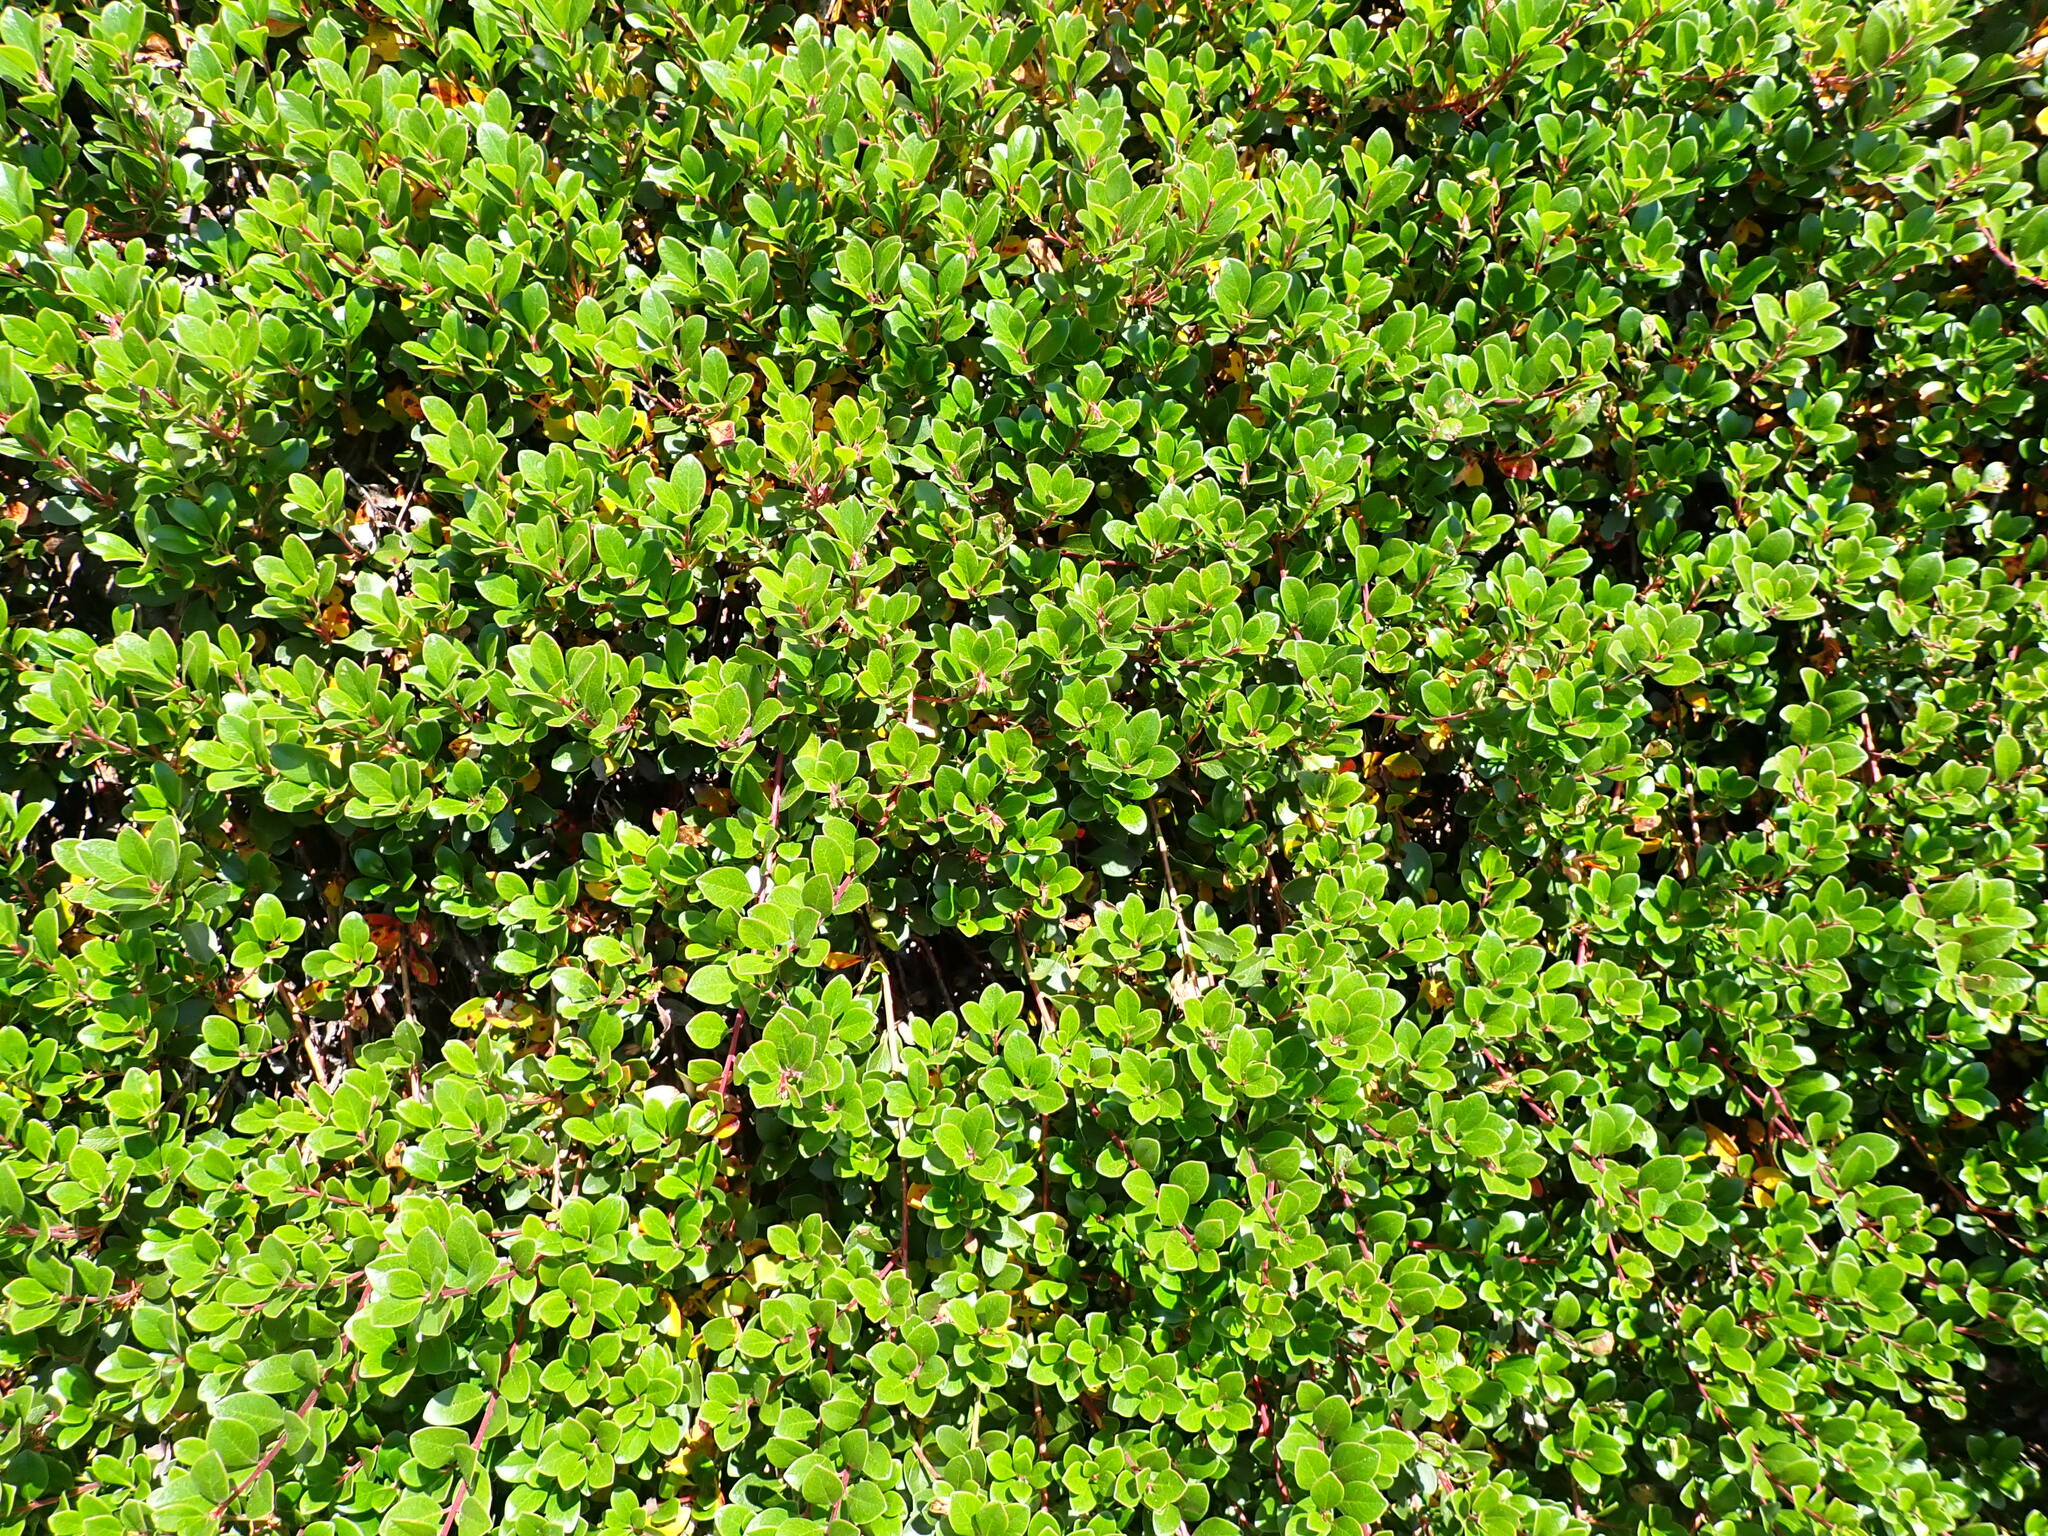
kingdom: Plantae
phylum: Tracheophyta
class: Magnoliopsida
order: Ericales
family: Ericaceae
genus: Arctostaphylos
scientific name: Arctostaphylos uva-ursi
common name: Bearberry
